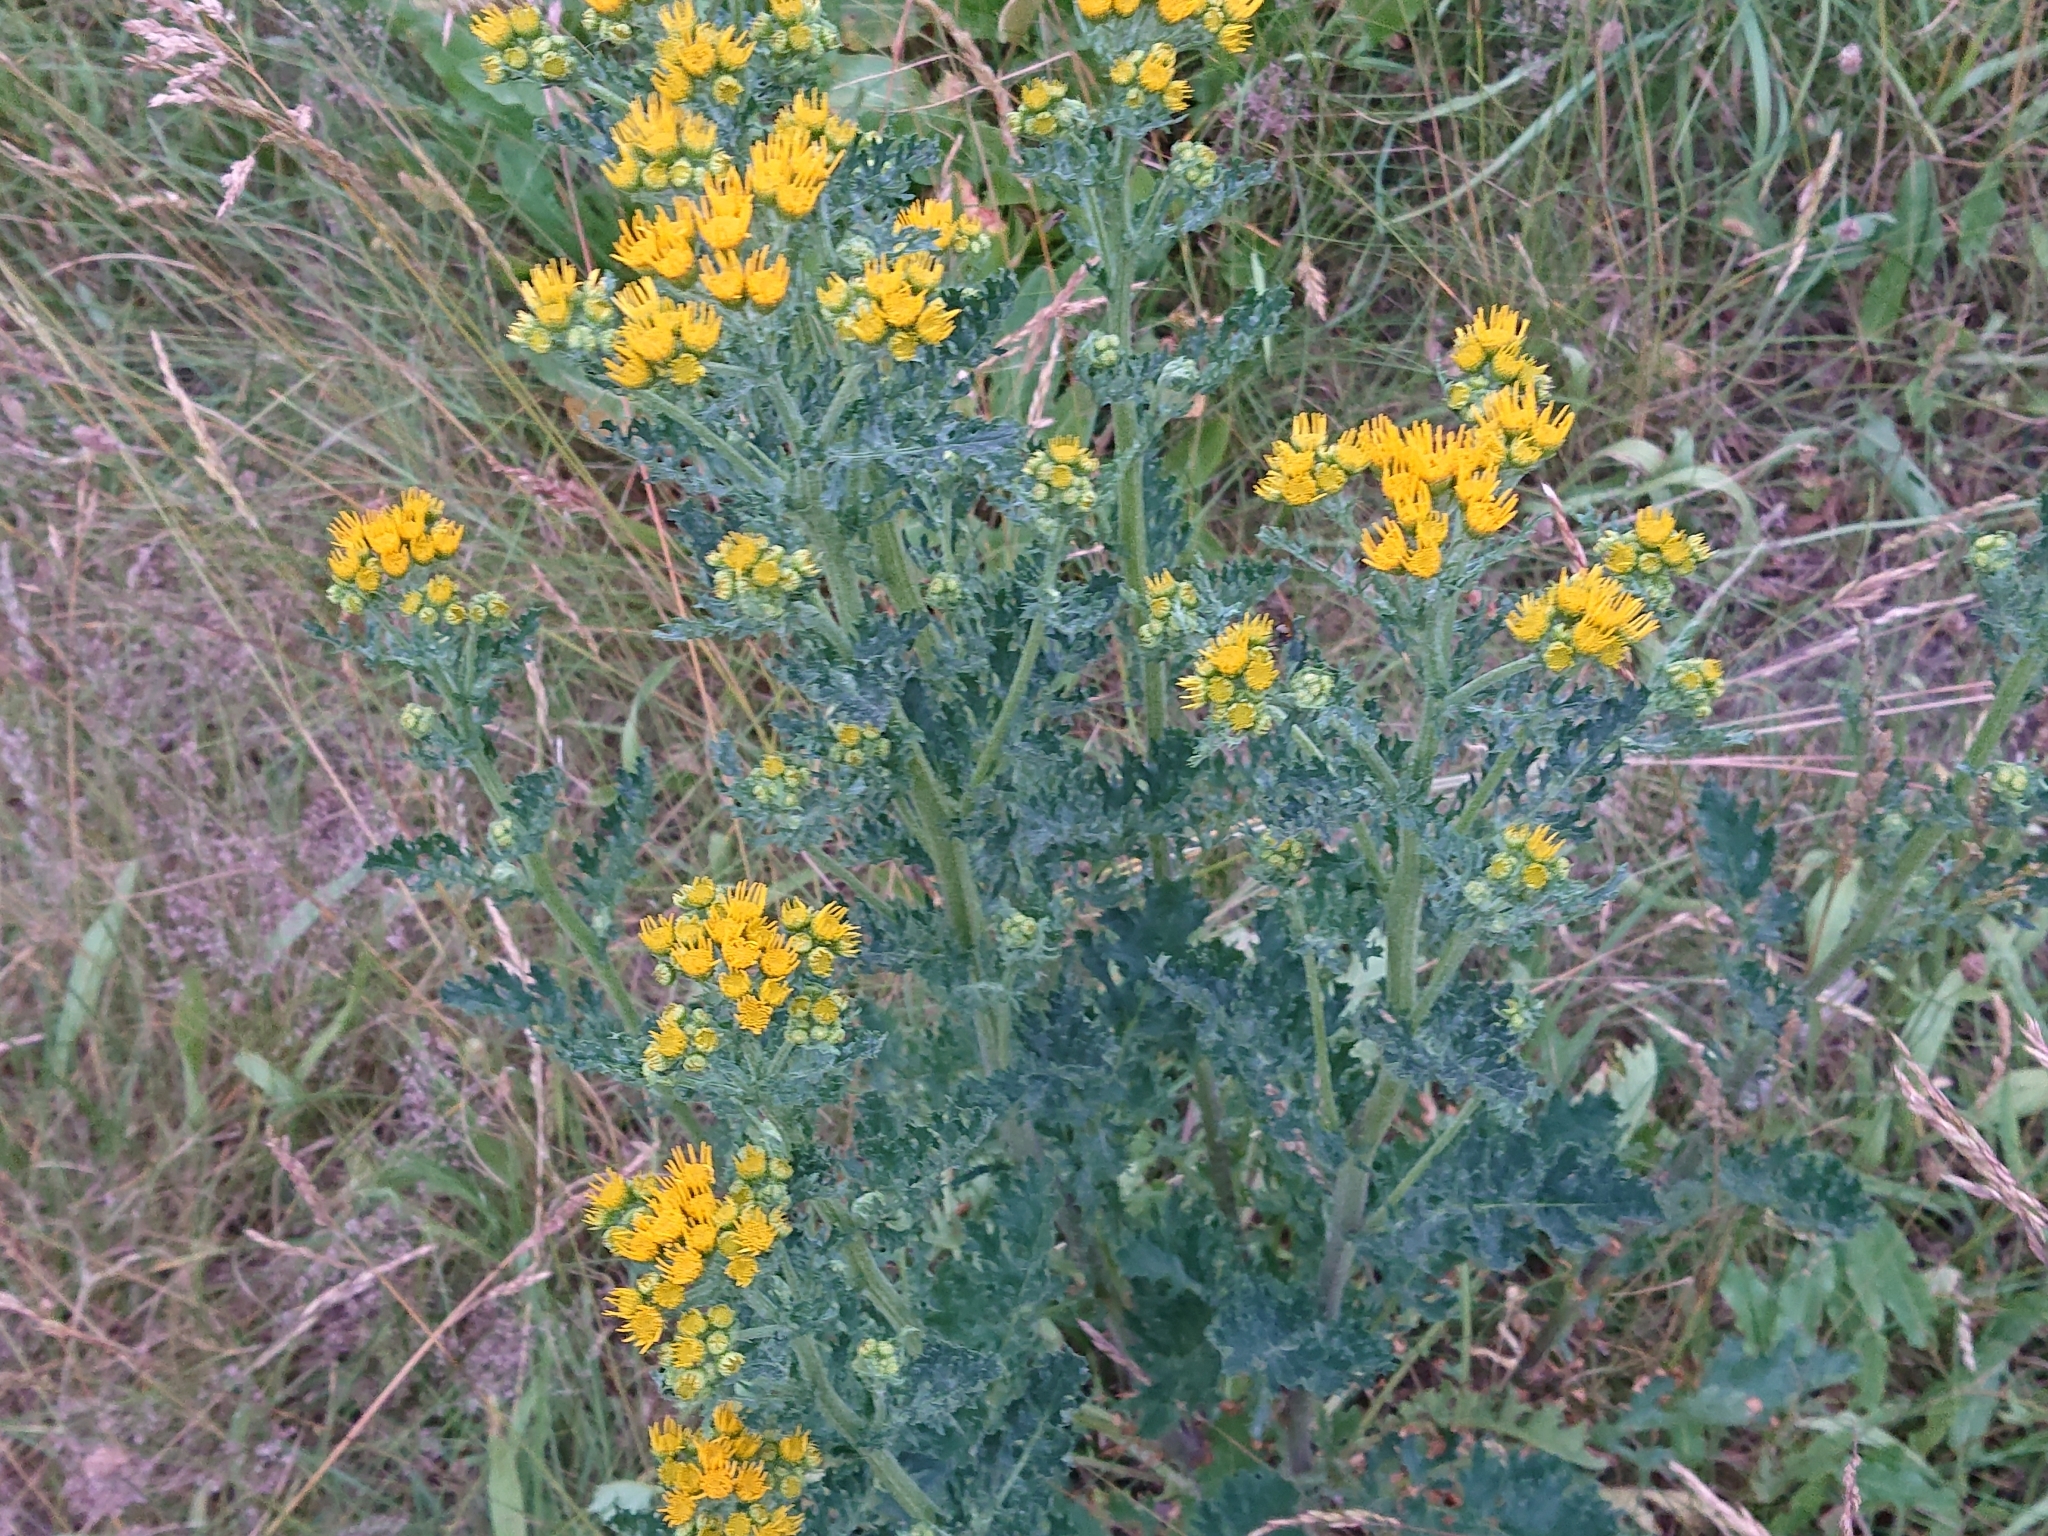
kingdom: Plantae
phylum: Tracheophyta
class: Magnoliopsida
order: Asterales
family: Asteraceae
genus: Jacobaea
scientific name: Jacobaea vulgaris
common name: Stinking willie
